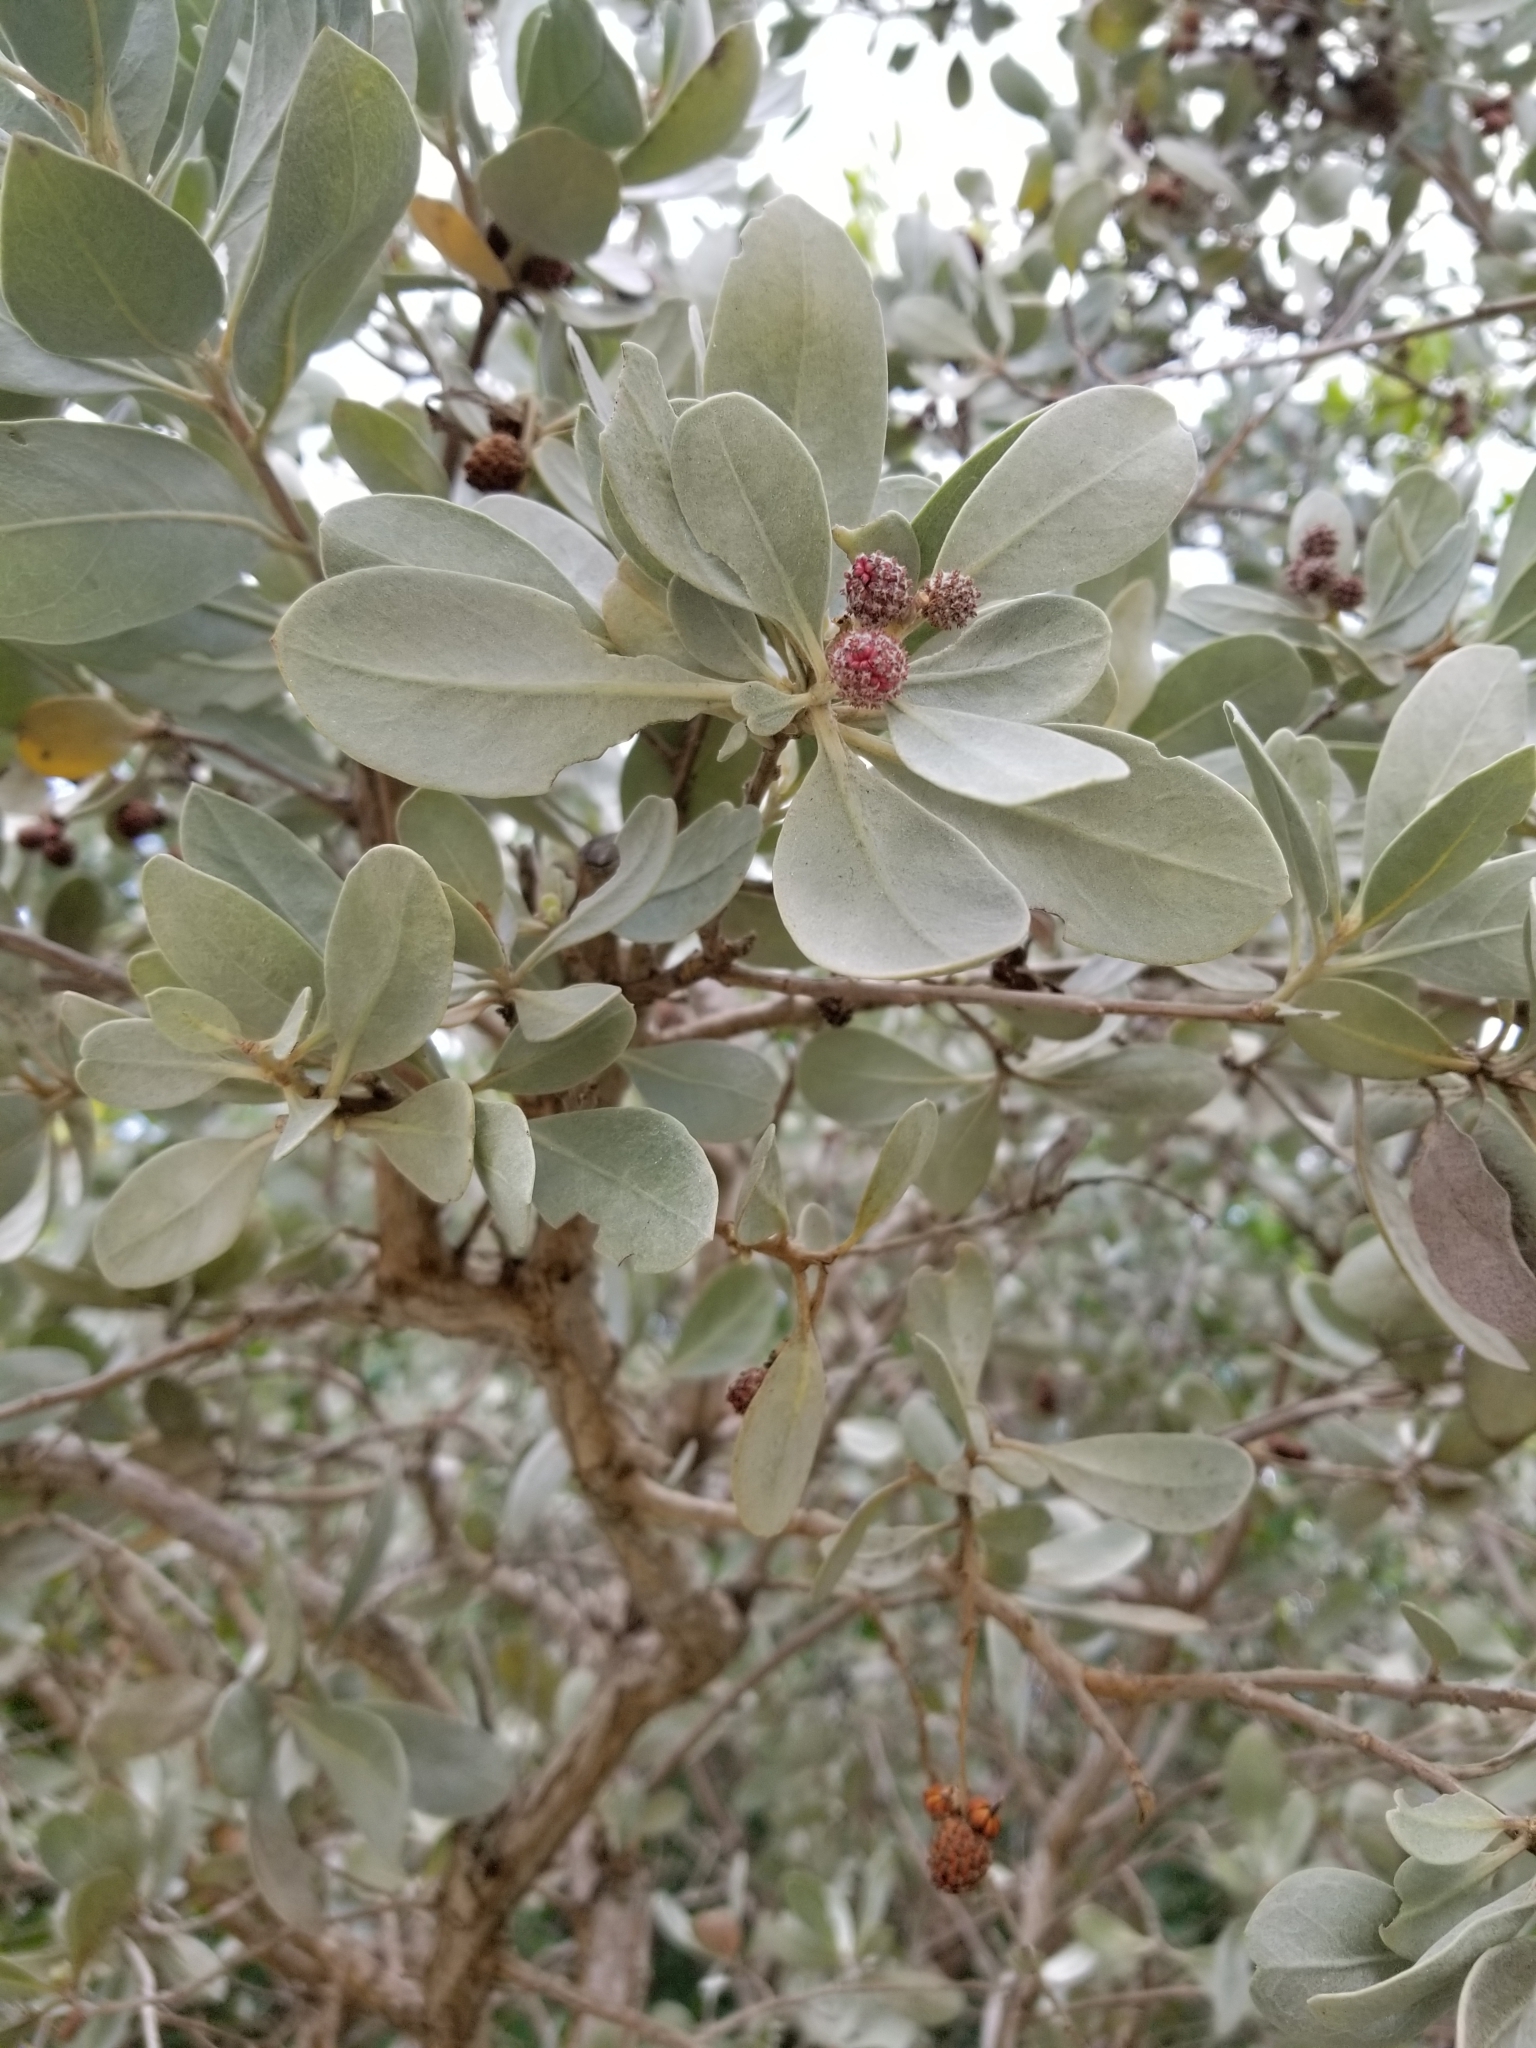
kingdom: Plantae
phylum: Tracheophyta
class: Magnoliopsida
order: Myrtales
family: Combretaceae
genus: Conocarpus
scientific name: Conocarpus erectus
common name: Button mangrove
